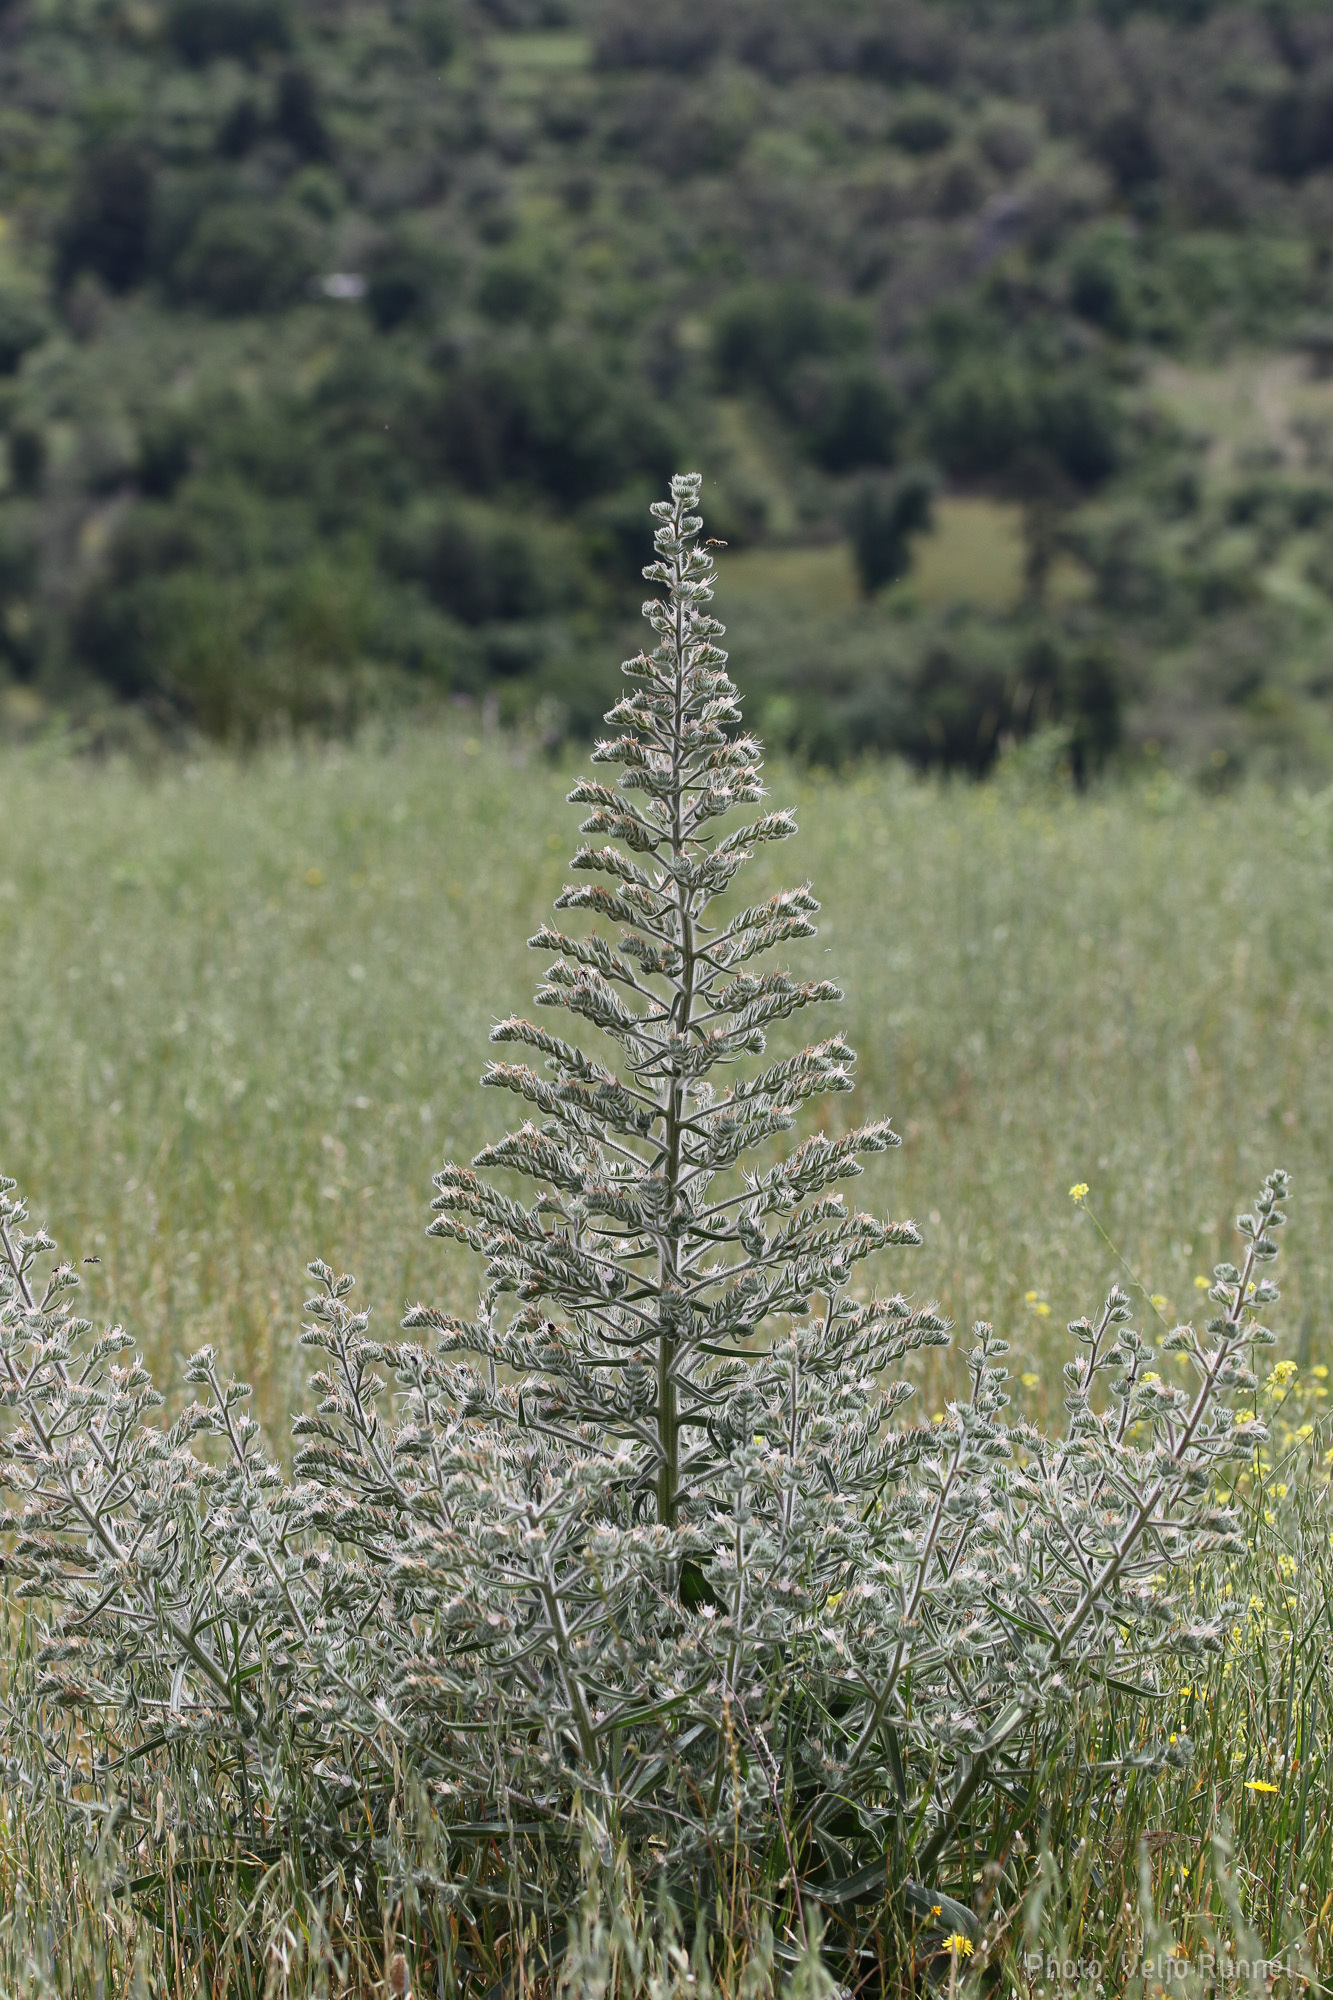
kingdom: Plantae
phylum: Tracheophyta
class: Magnoliopsida
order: Boraginales
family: Boraginaceae
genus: Echium
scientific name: Echium italicum
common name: Italian viper's bugloss
